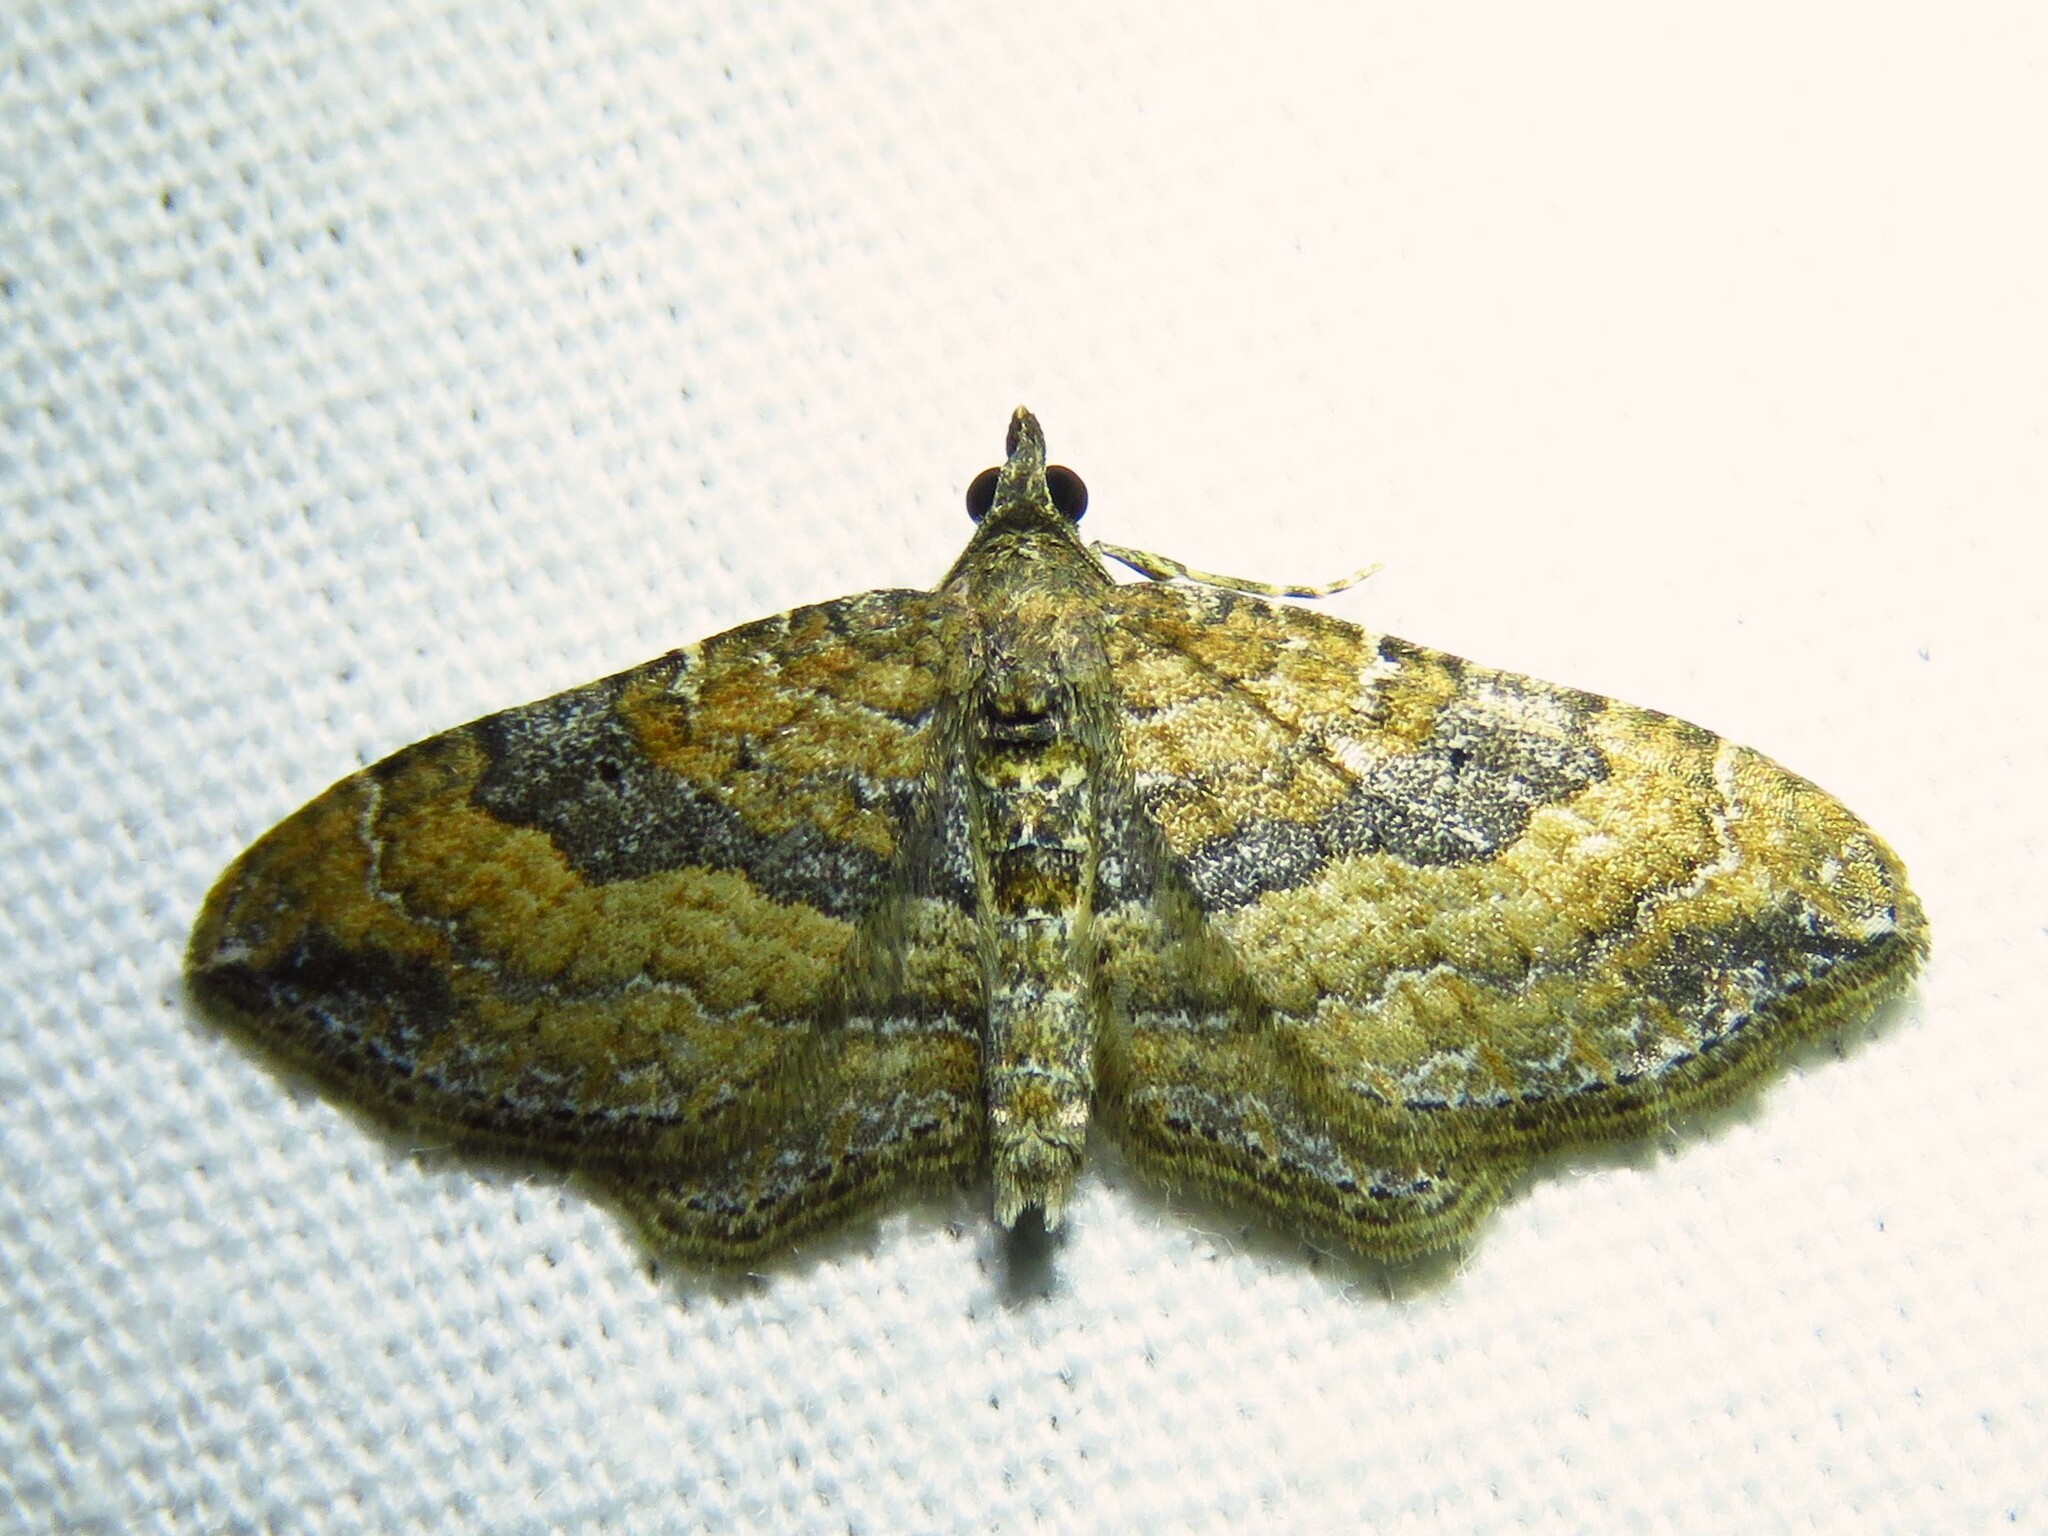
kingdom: Animalia
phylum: Arthropoda
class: Insecta
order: Lepidoptera
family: Geometridae
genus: Orthonama
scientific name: Orthonama obstipata
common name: The gem
